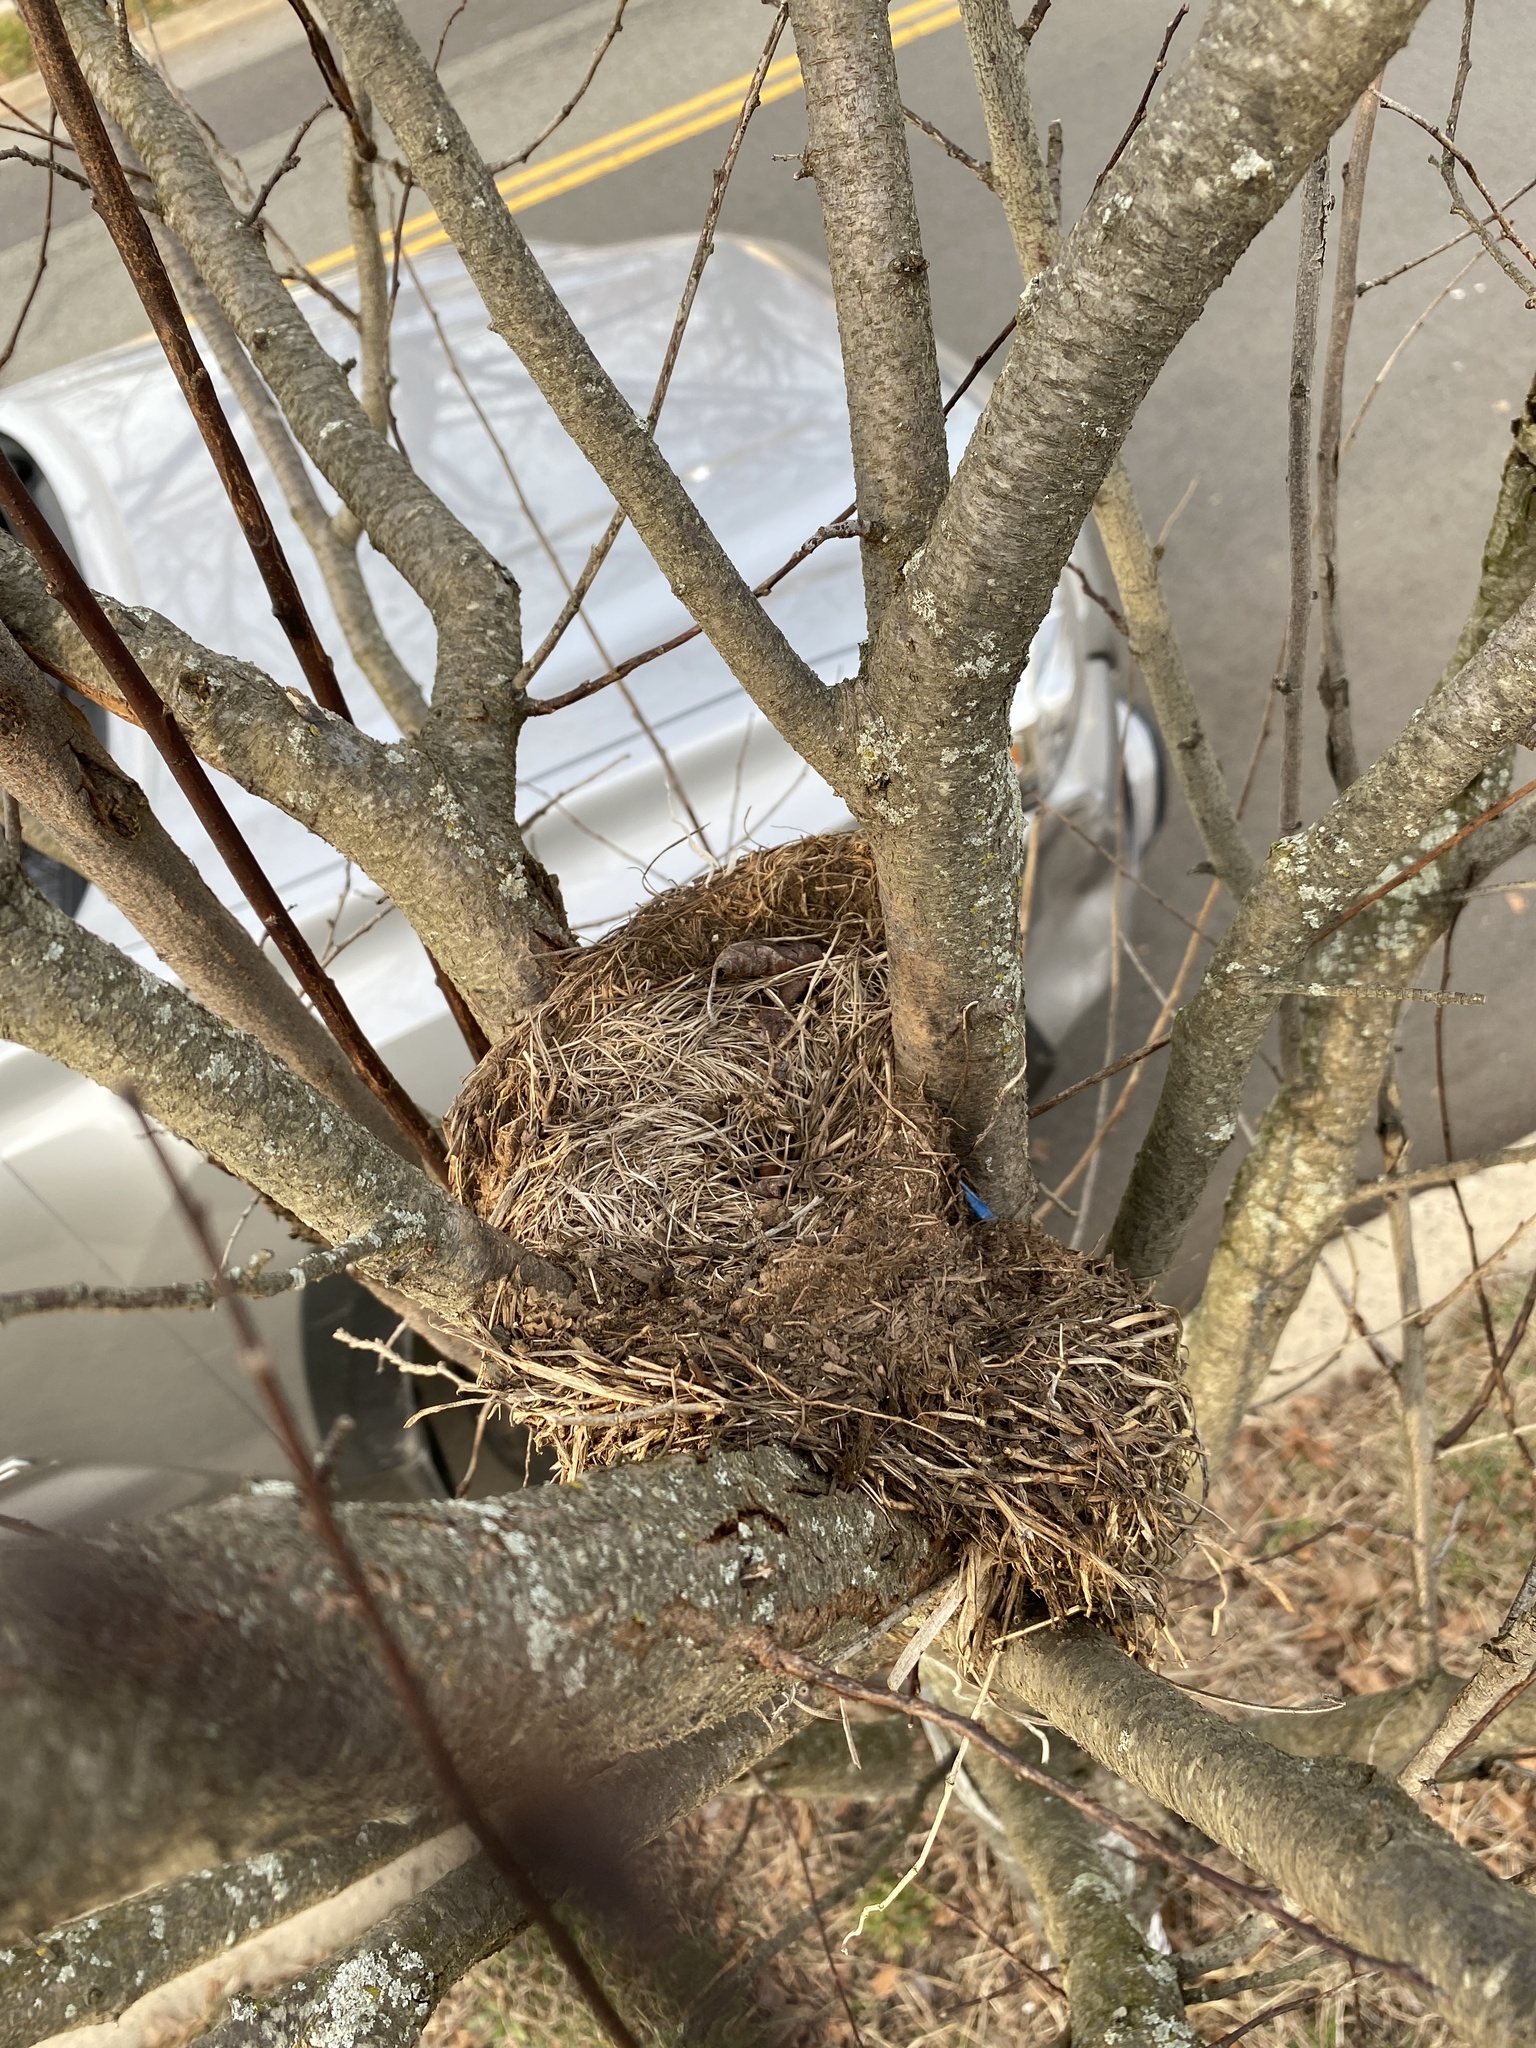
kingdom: Animalia
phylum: Chordata
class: Aves
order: Passeriformes
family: Turdidae
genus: Turdus
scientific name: Turdus migratorius
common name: American robin
